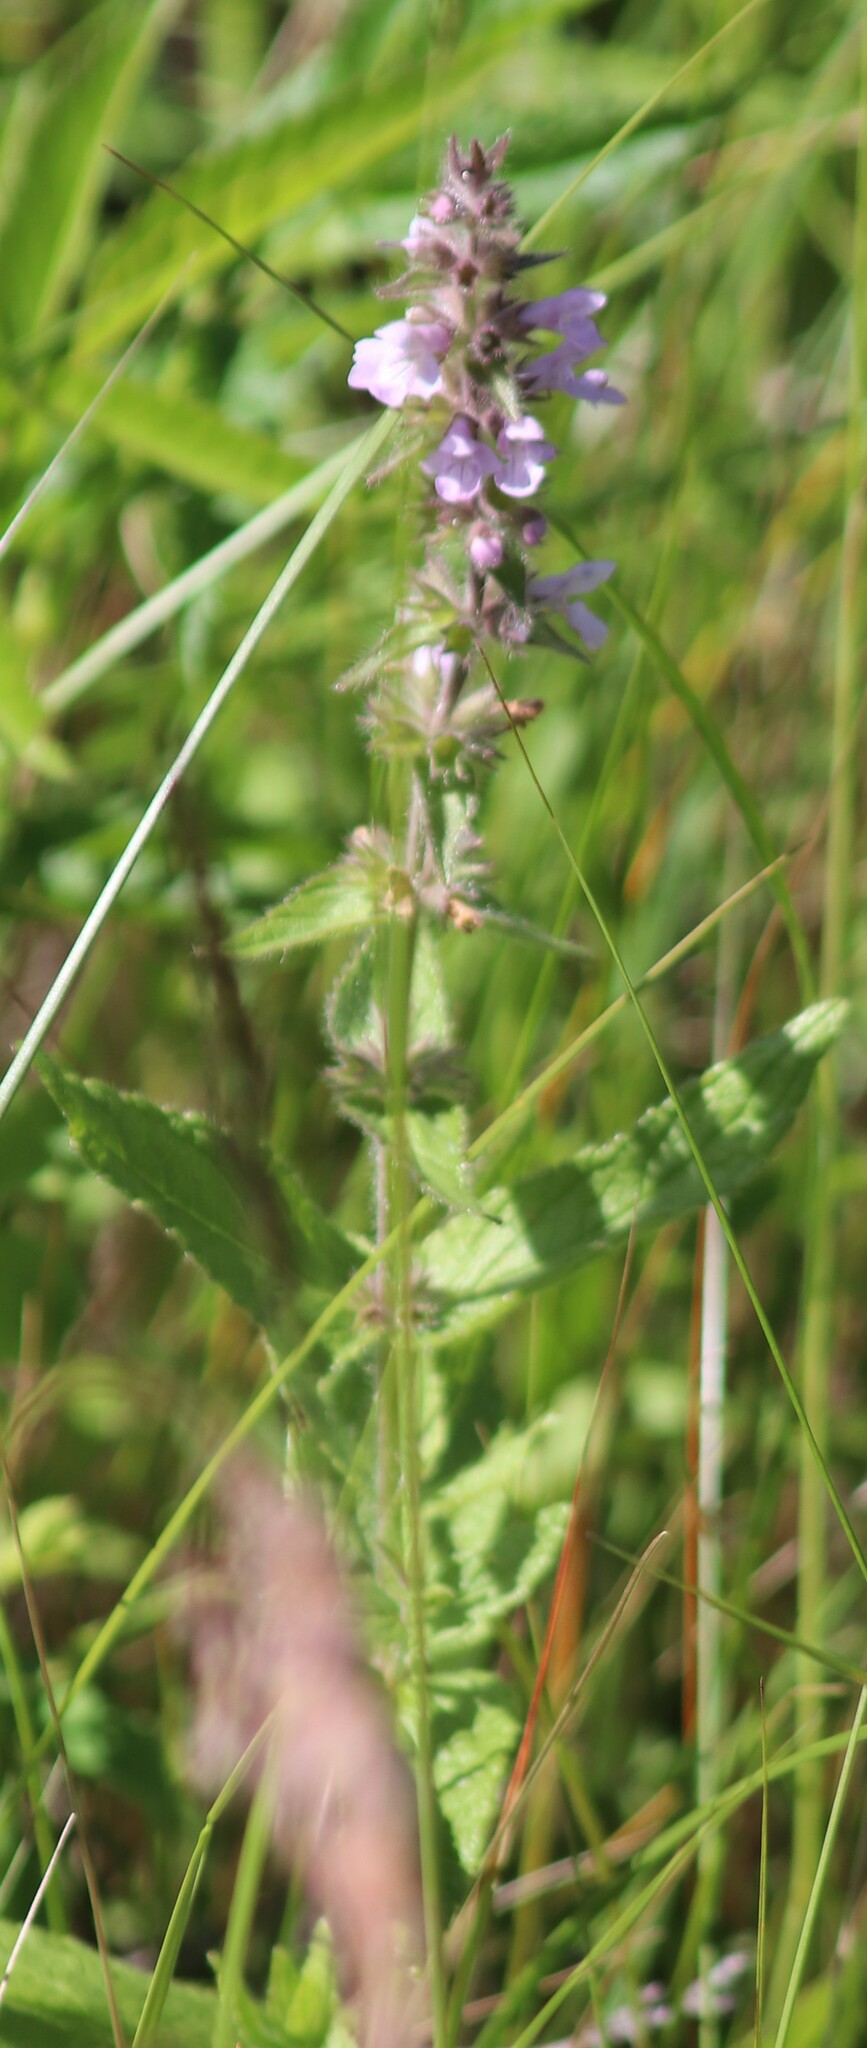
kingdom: Plantae
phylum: Tracheophyta
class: Magnoliopsida
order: Lamiales
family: Lamiaceae
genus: Stachys
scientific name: Stachys pilosa
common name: Hairy hedge-nettle
